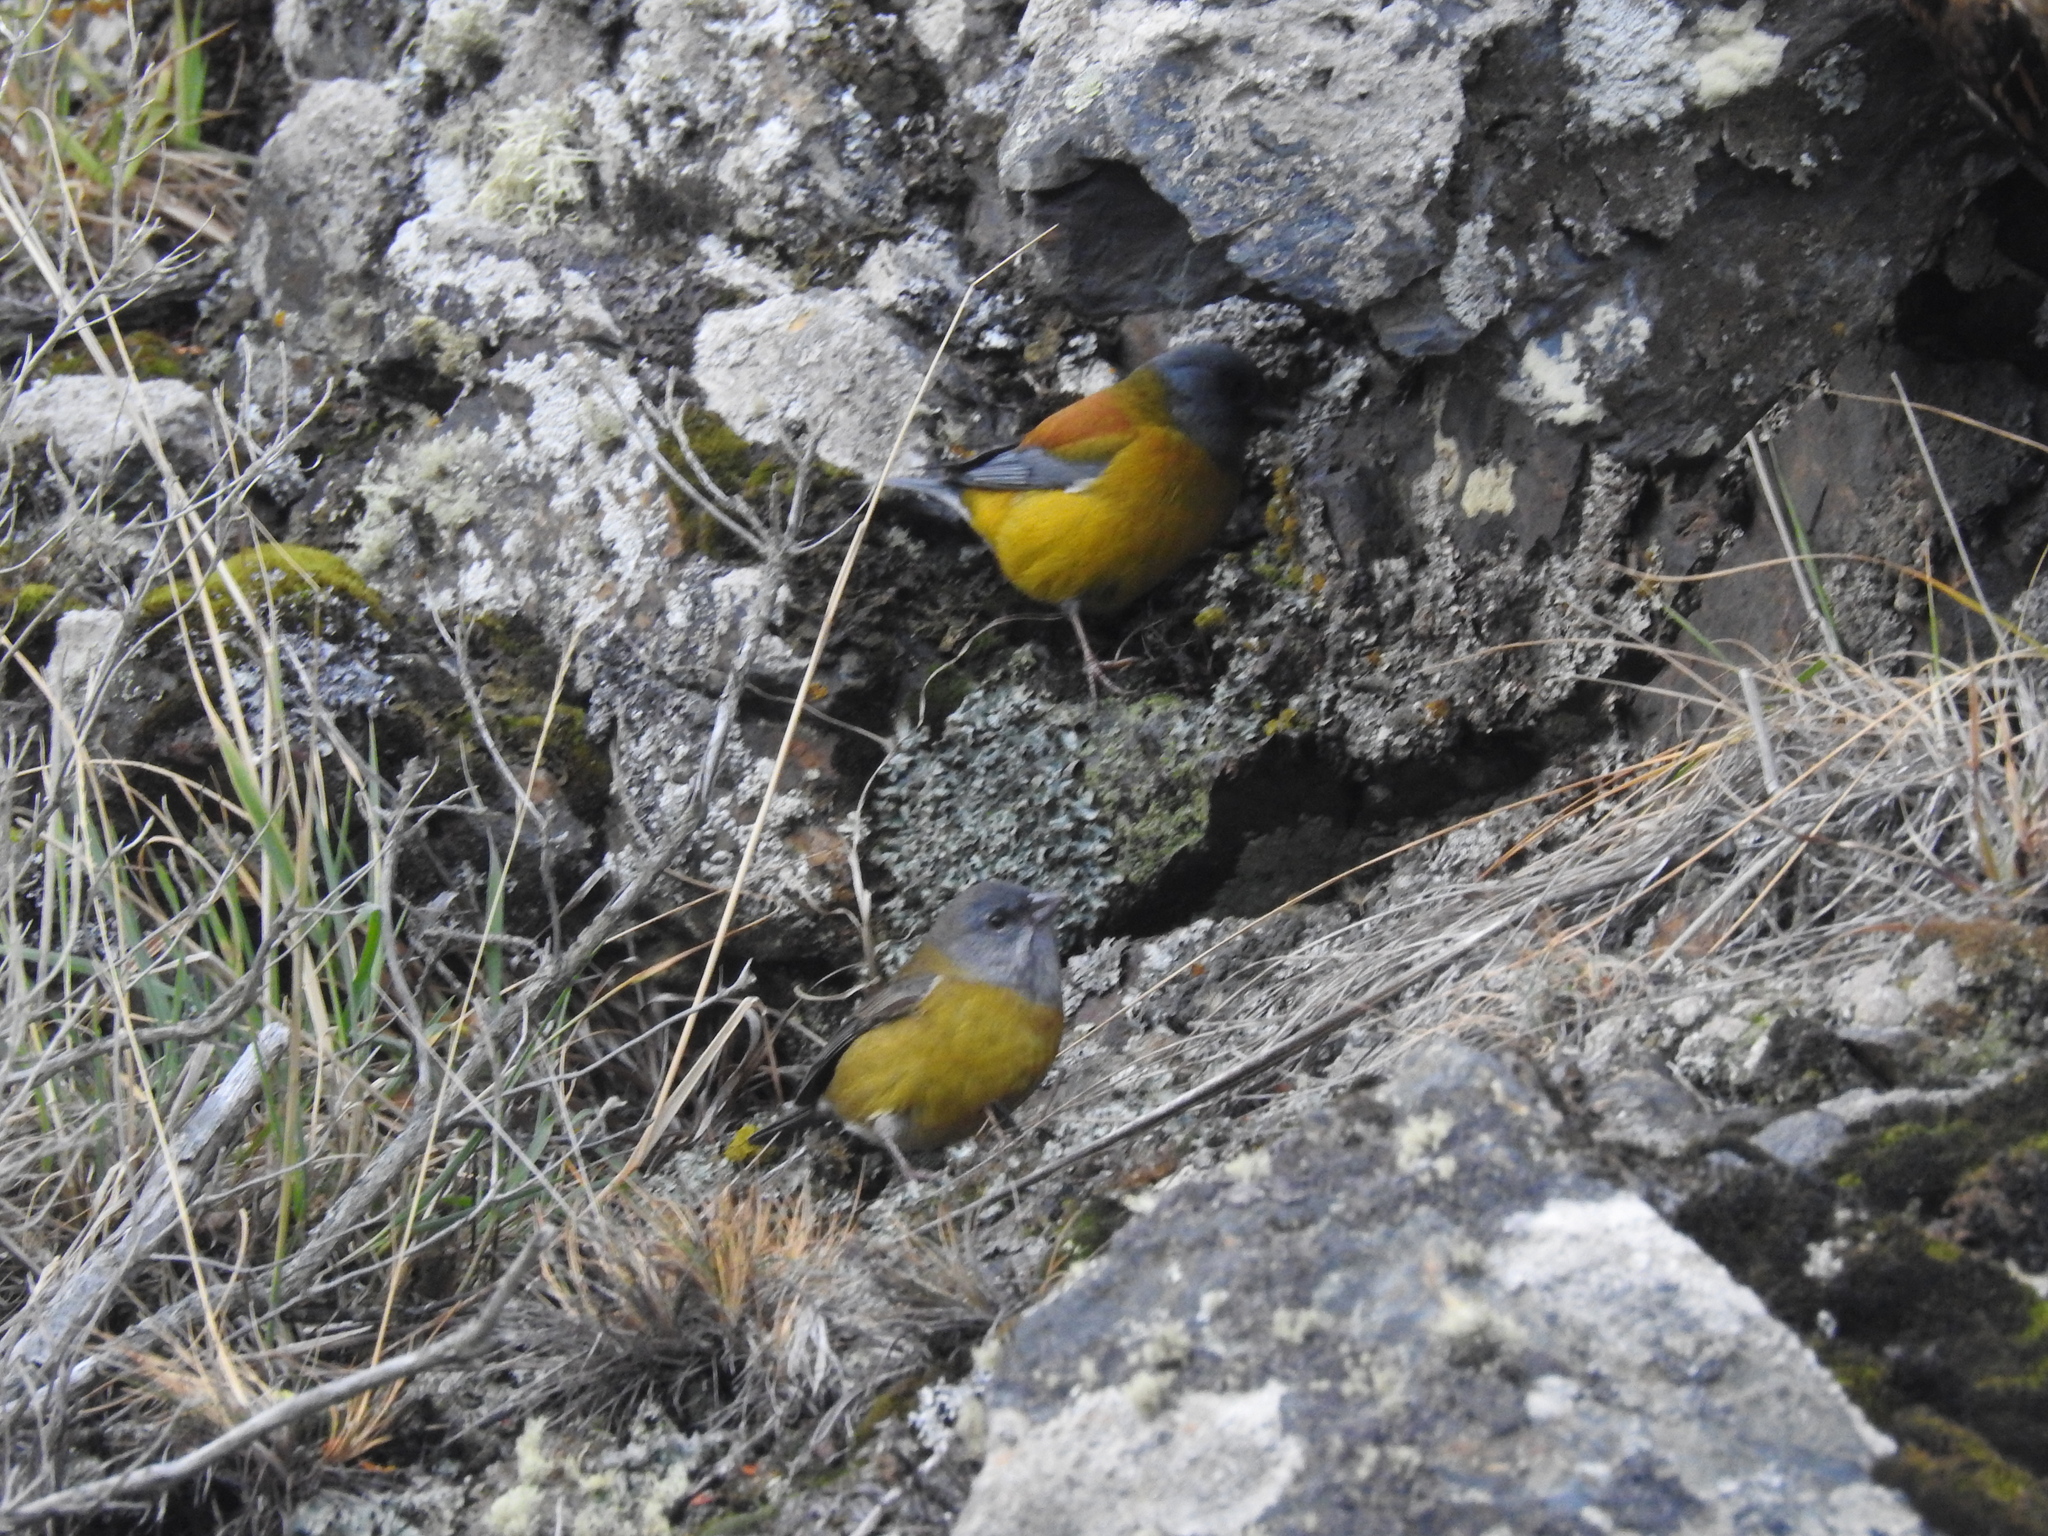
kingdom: Animalia
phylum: Chordata
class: Aves
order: Passeriformes
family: Thraupidae
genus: Phrygilus
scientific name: Phrygilus patagonicus
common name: Patagonian sierra finch
